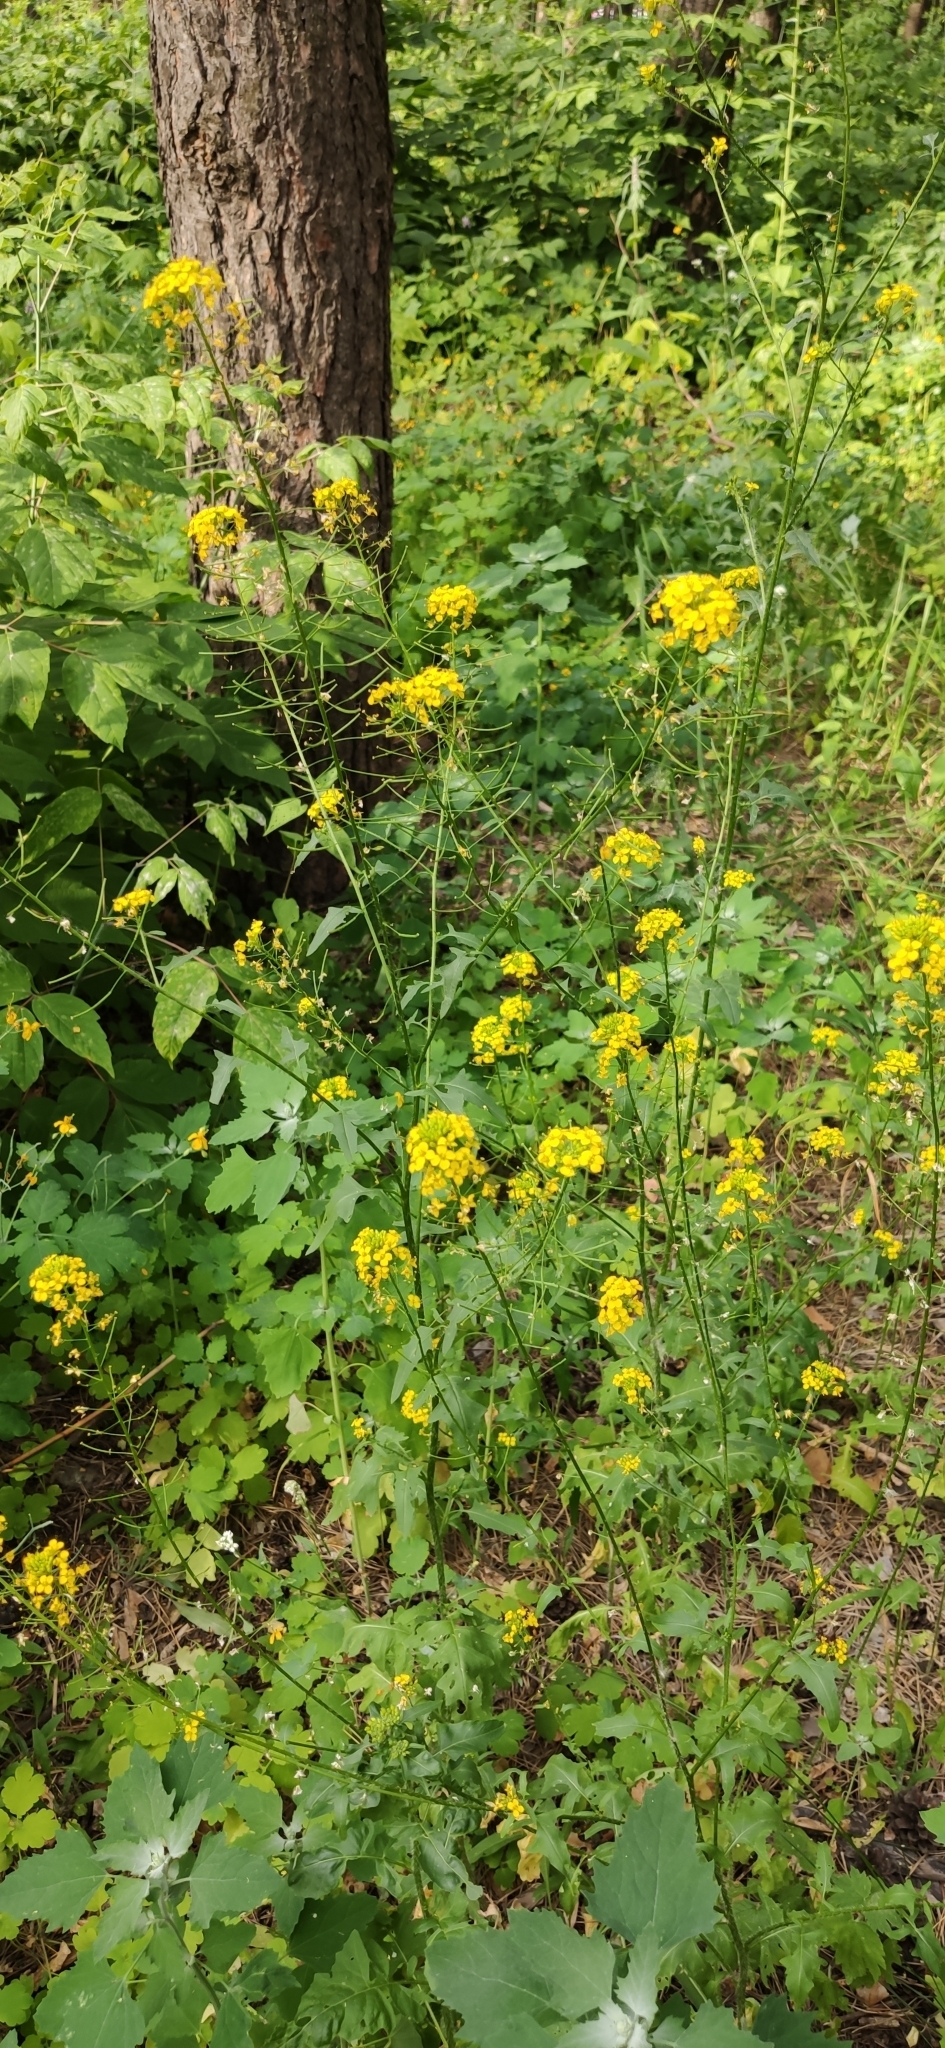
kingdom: Plantae
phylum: Tracheophyta
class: Magnoliopsida
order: Brassicales
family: Brassicaceae
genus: Sisymbrium
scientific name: Sisymbrium loeselii
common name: False london-rocket
